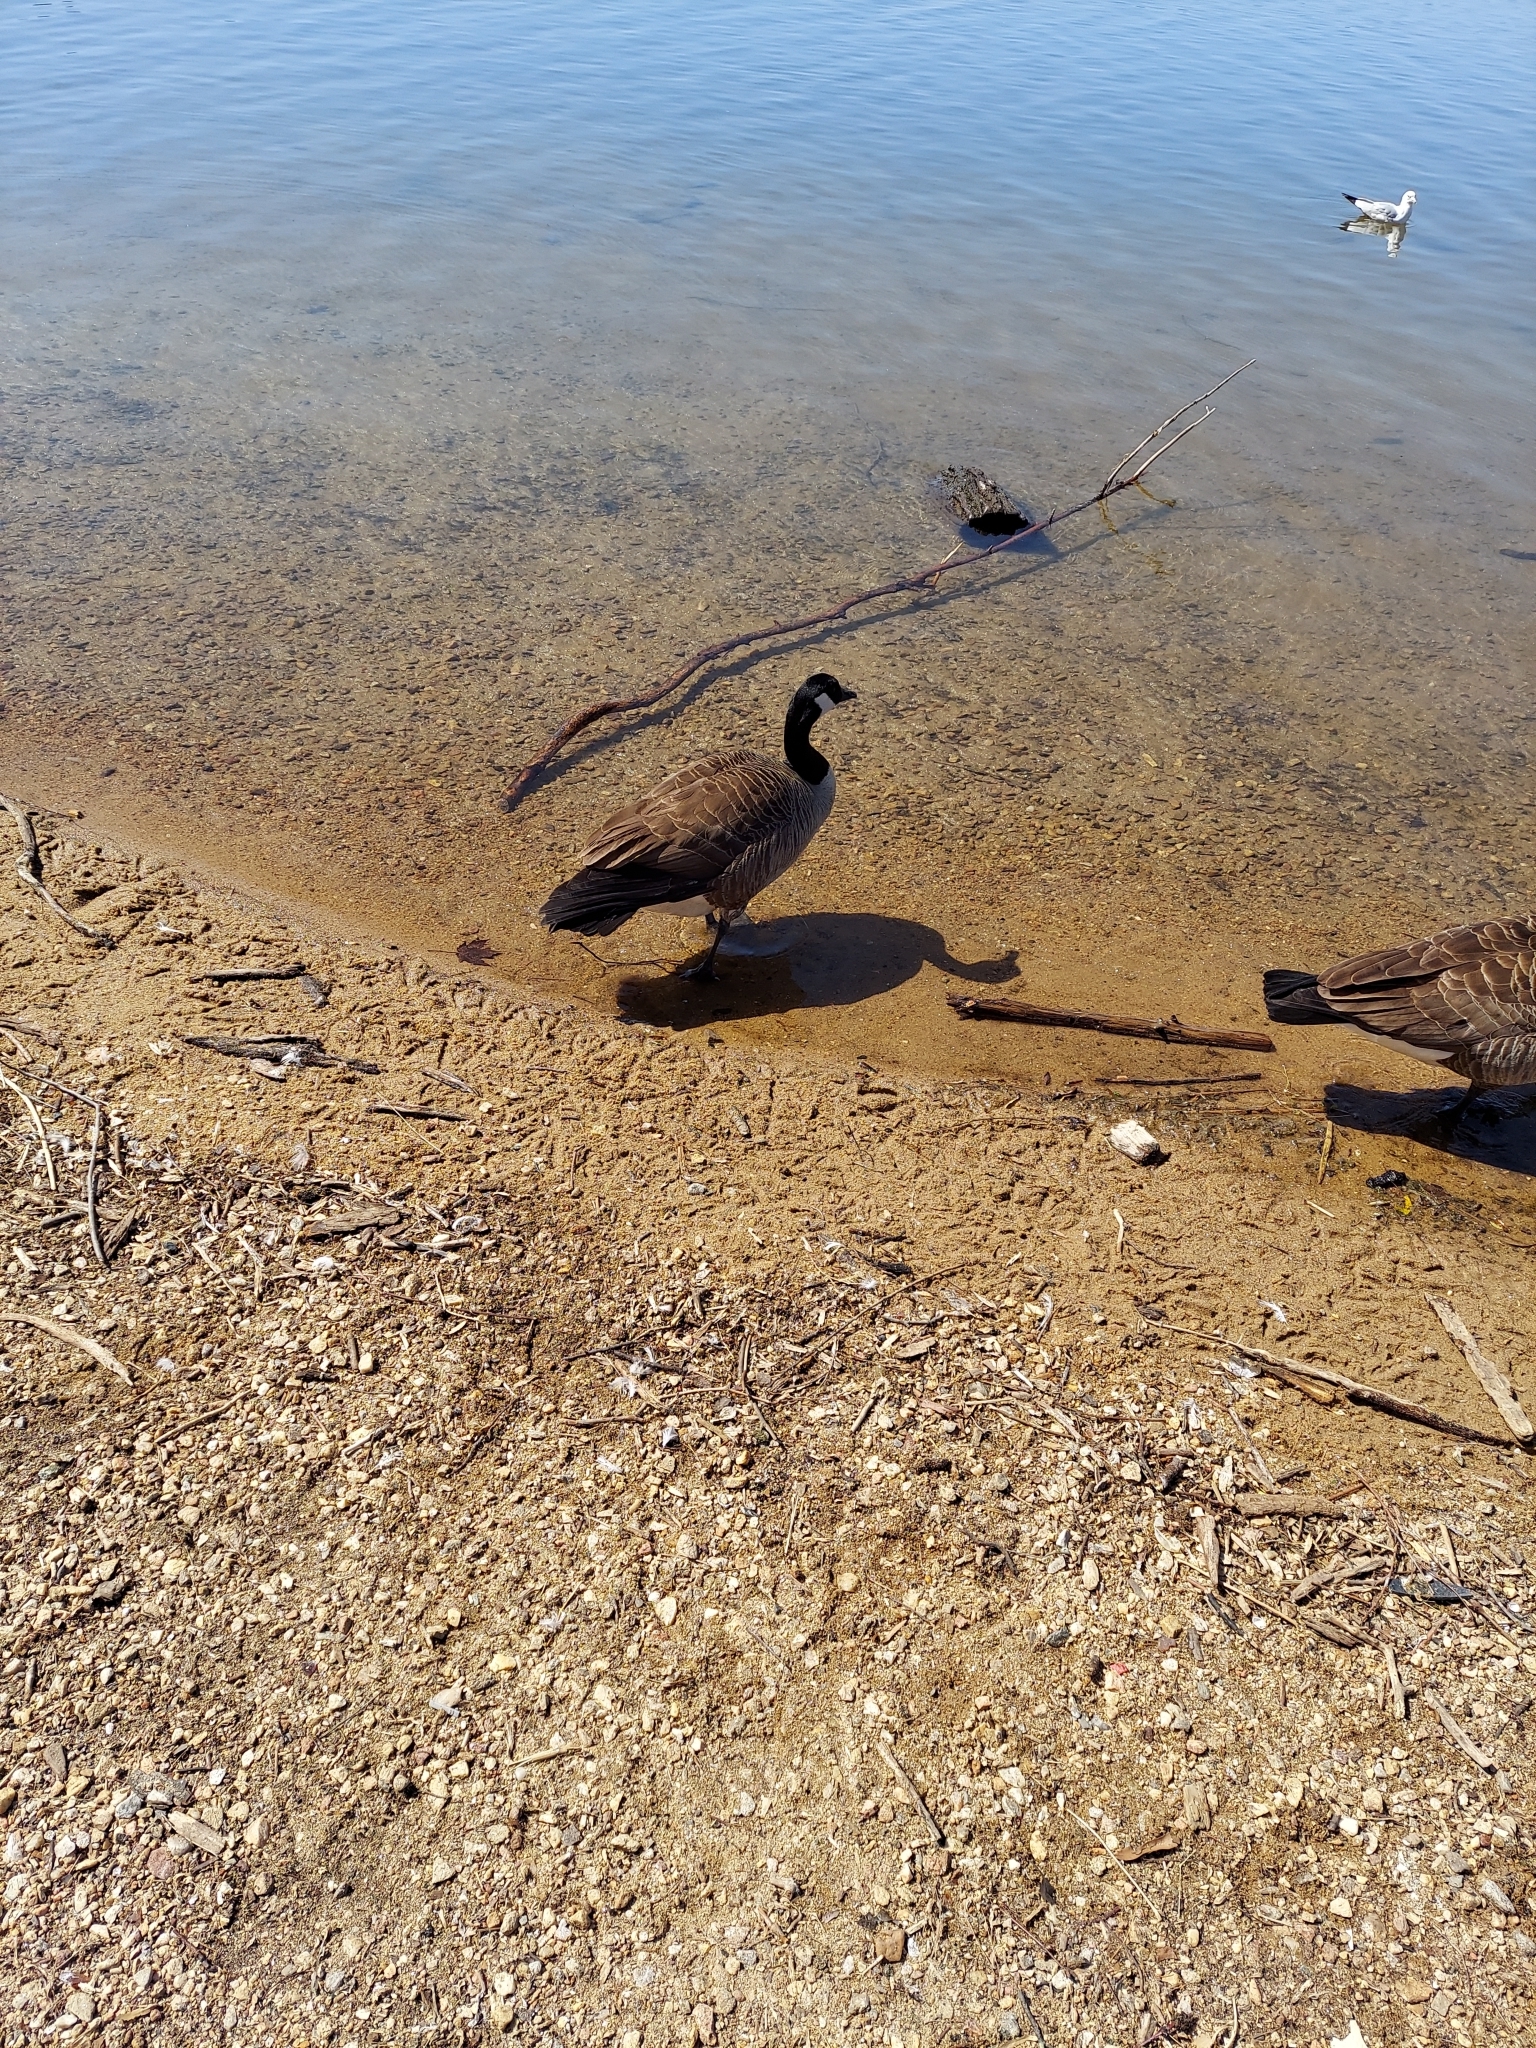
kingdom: Animalia
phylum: Chordata
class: Aves
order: Anseriformes
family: Anatidae
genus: Branta
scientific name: Branta canadensis
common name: Canada goose
